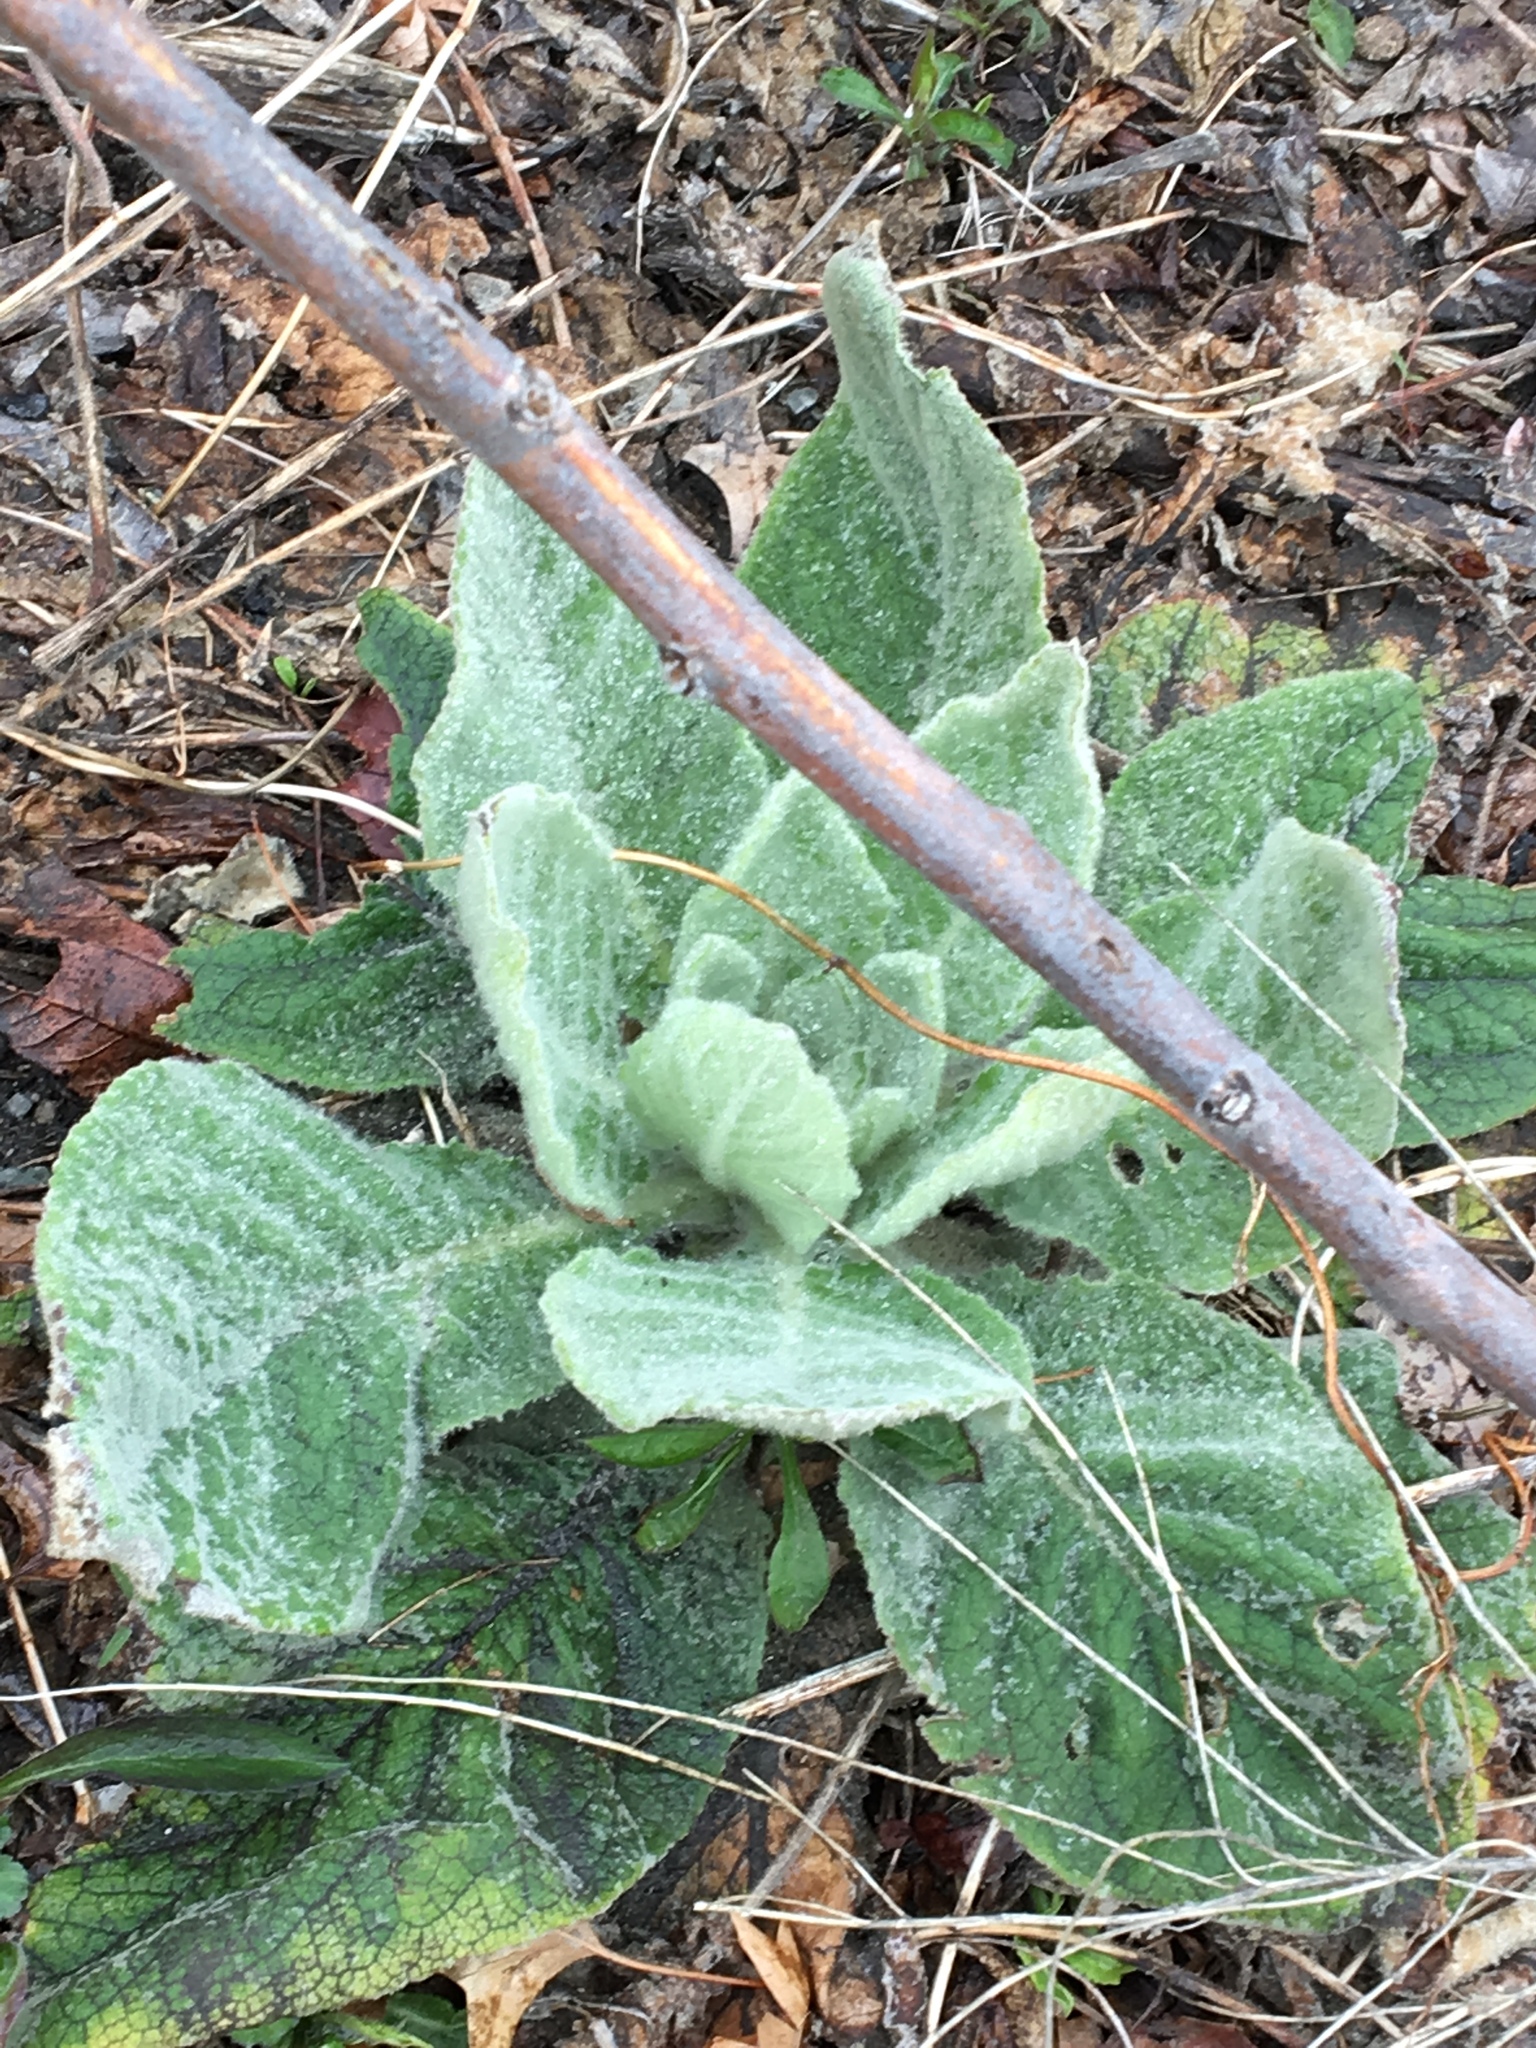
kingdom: Plantae
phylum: Tracheophyta
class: Magnoliopsida
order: Lamiales
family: Scrophulariaceae
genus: Verbascum
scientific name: Verbascum thapsus
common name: Common mullein
